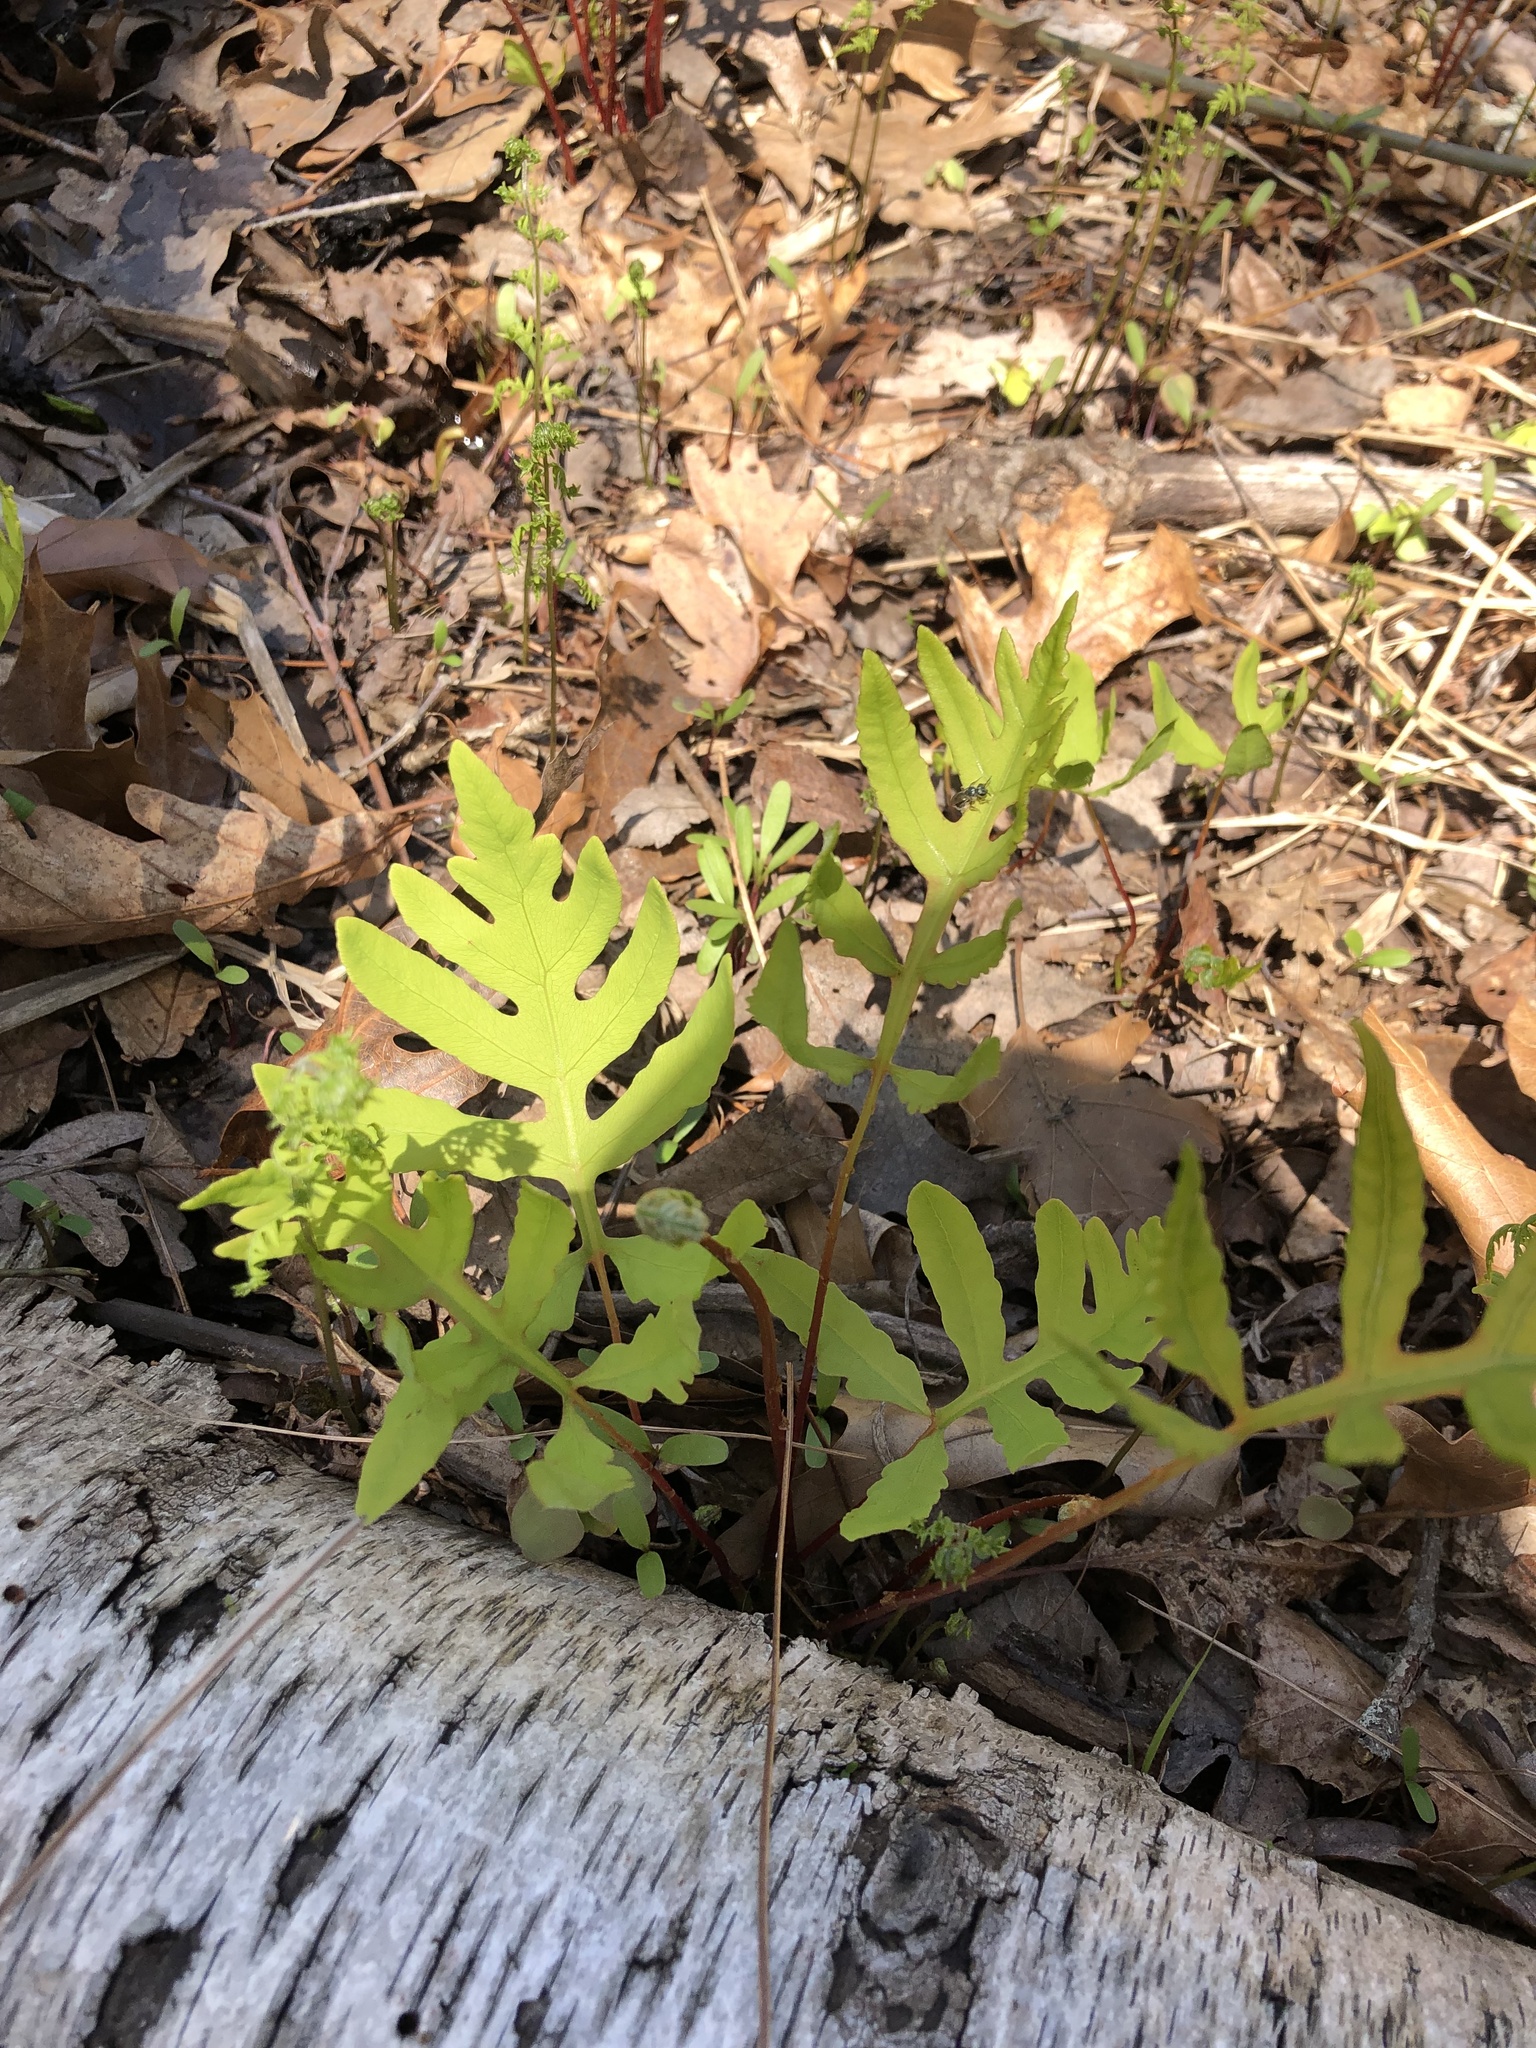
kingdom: Plantae
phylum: Tracheophyta
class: Polypodiopsida
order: Polypodiales
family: Onocleaceae
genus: Onoclea
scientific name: Onoclea sensibilis
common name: Sensitive fern
